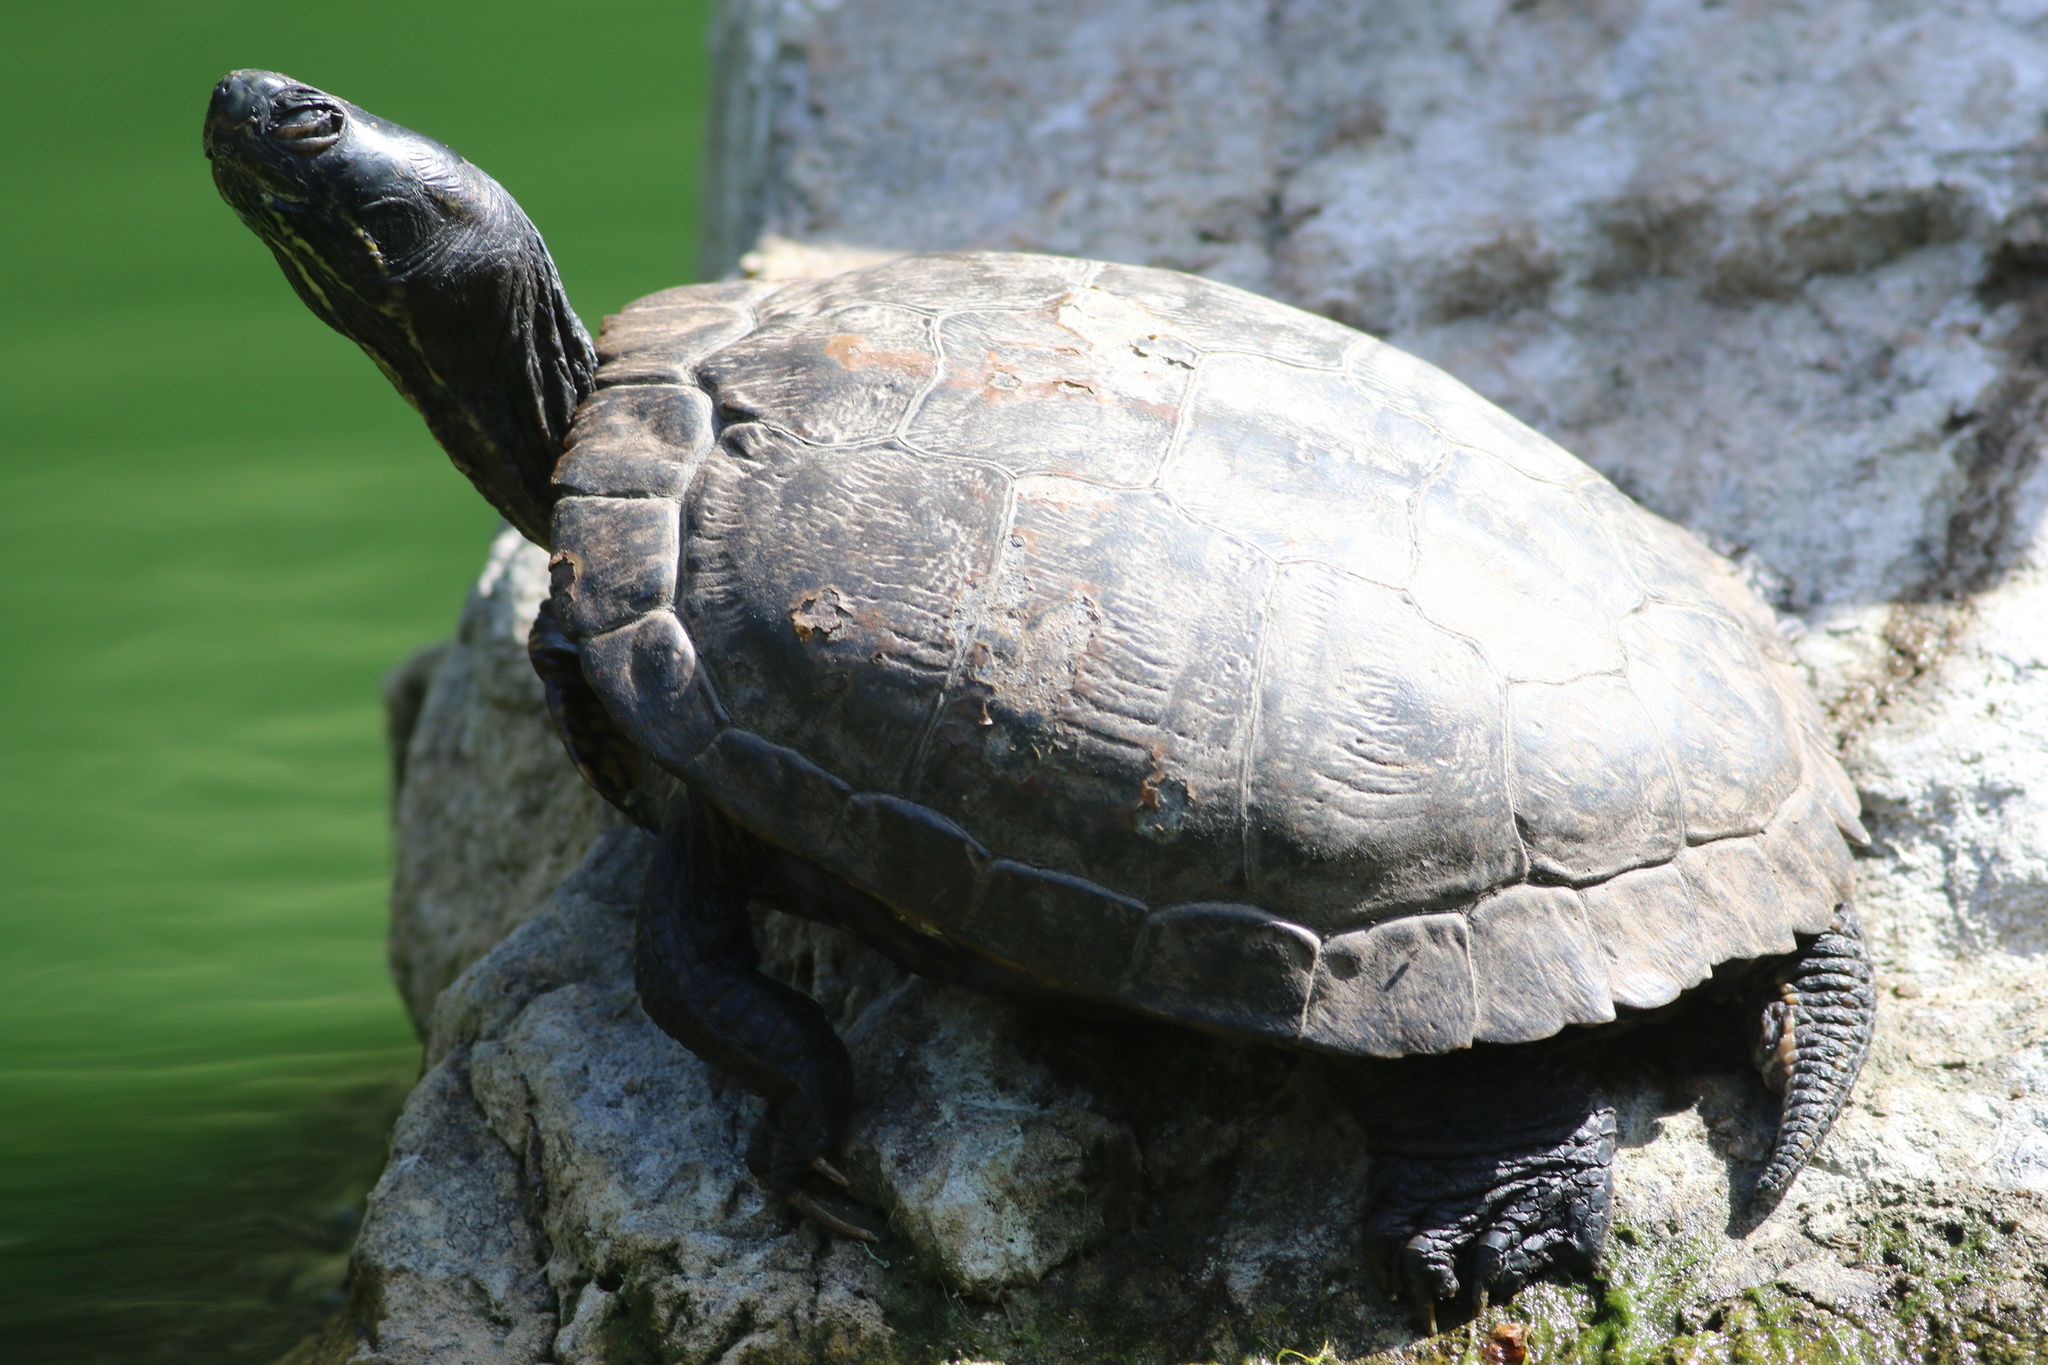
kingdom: Animalia
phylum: Chordata
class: Testudines
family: Emydidae
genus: Trachemys
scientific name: Trachemys scripta
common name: Slider
